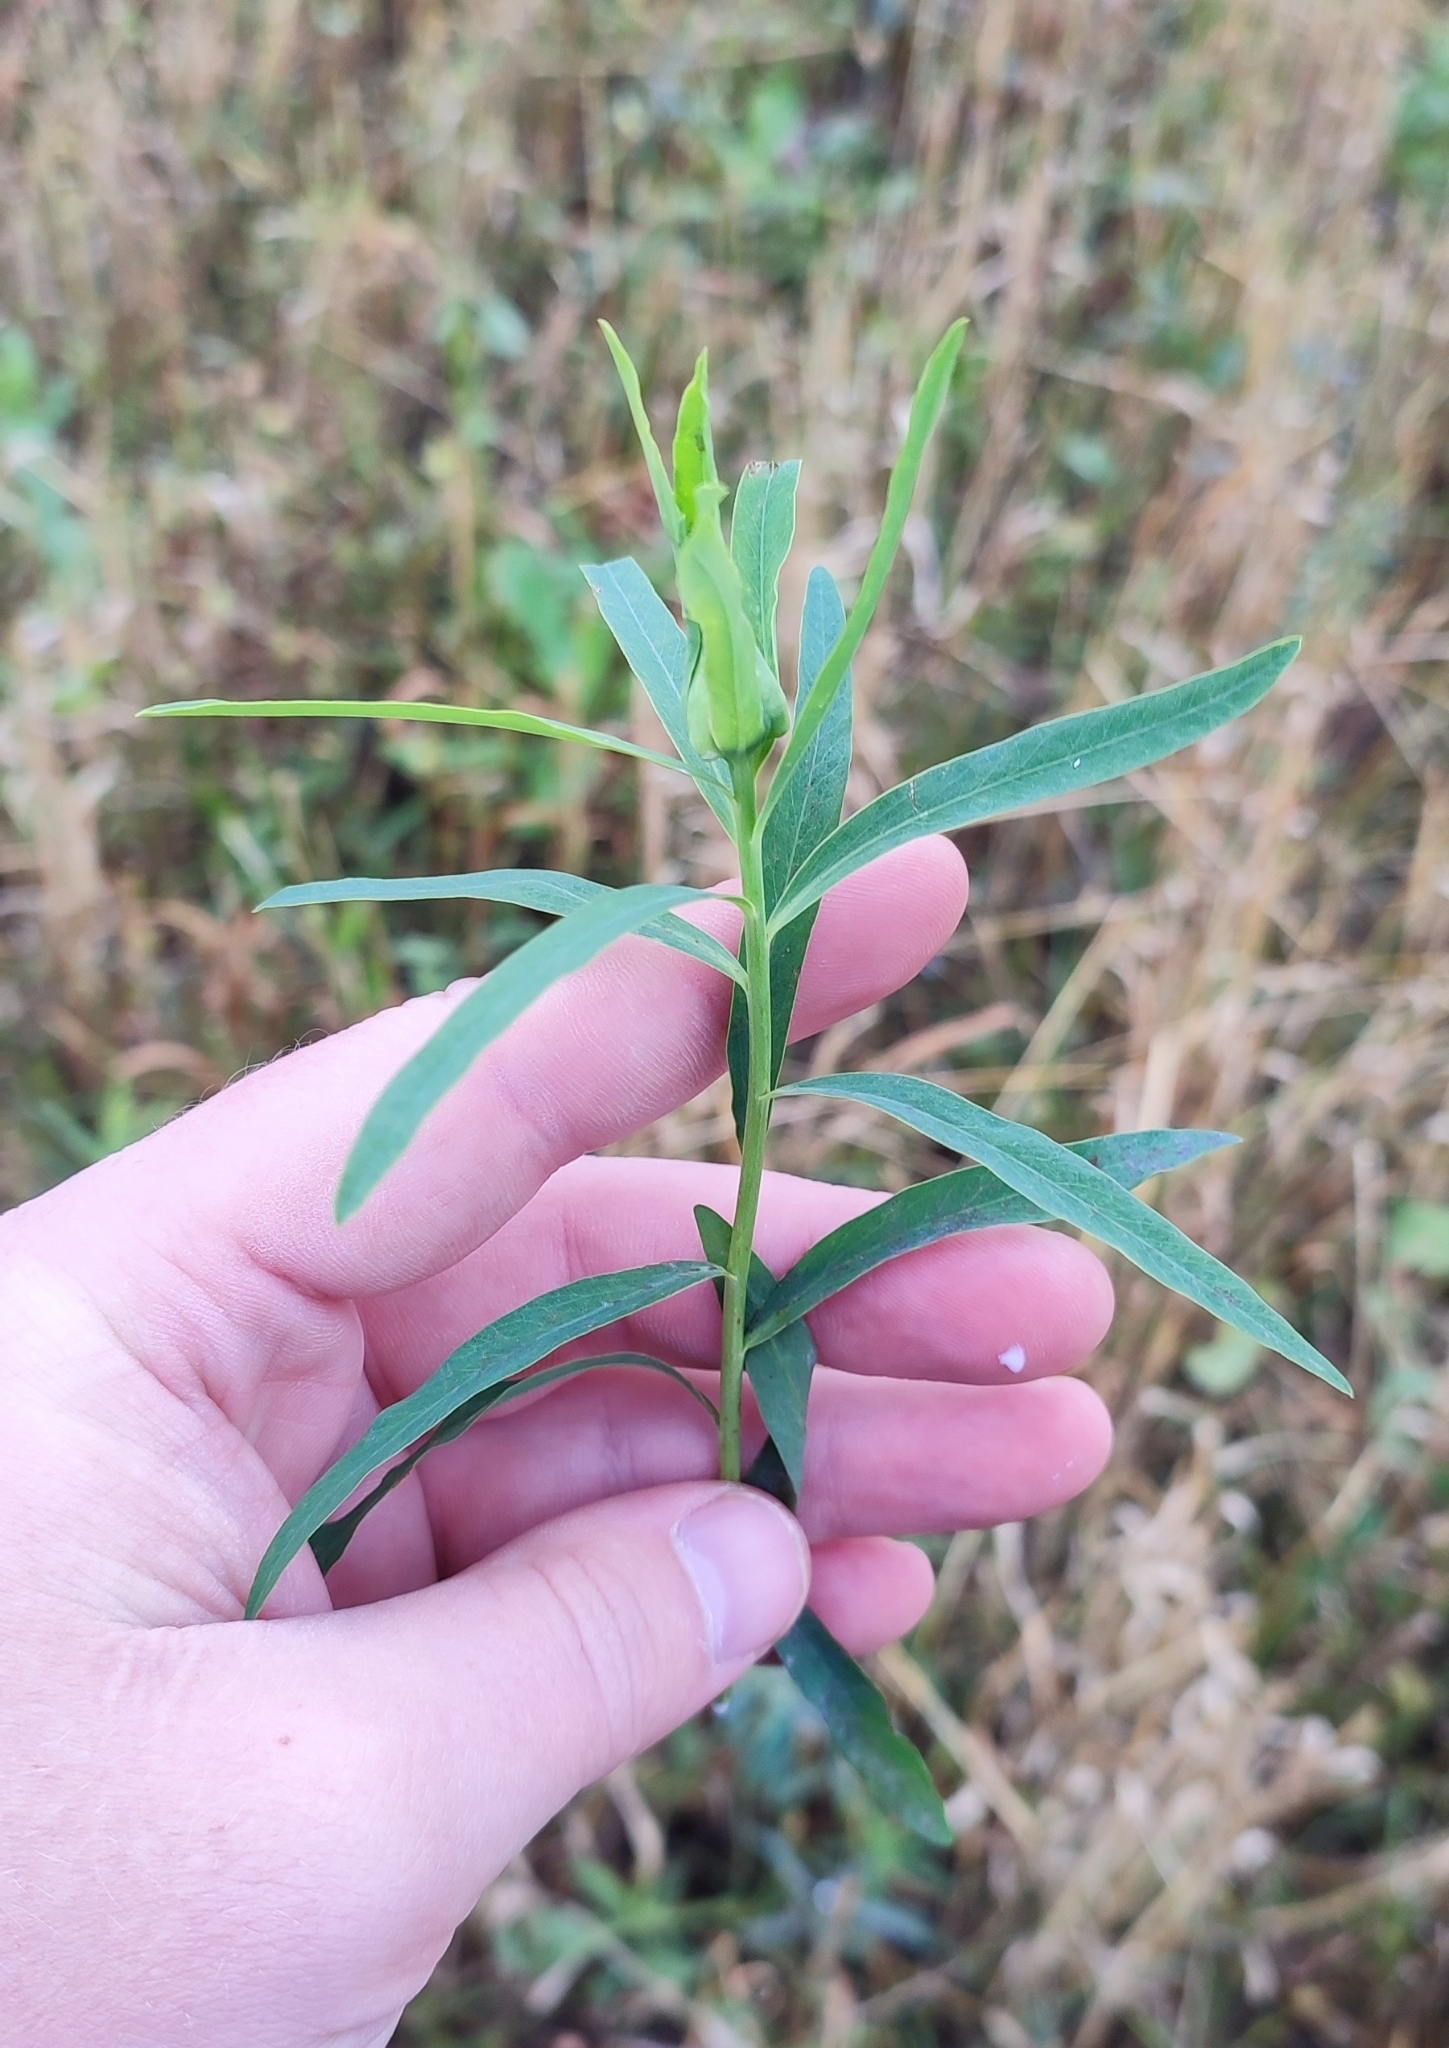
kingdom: Plantae
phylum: Tracheophyta
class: Magnoliopsida
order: Malpighiales
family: Euphorbiaceae
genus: Euphorbia
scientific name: Euphorbia virgata
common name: Leafy spurge
